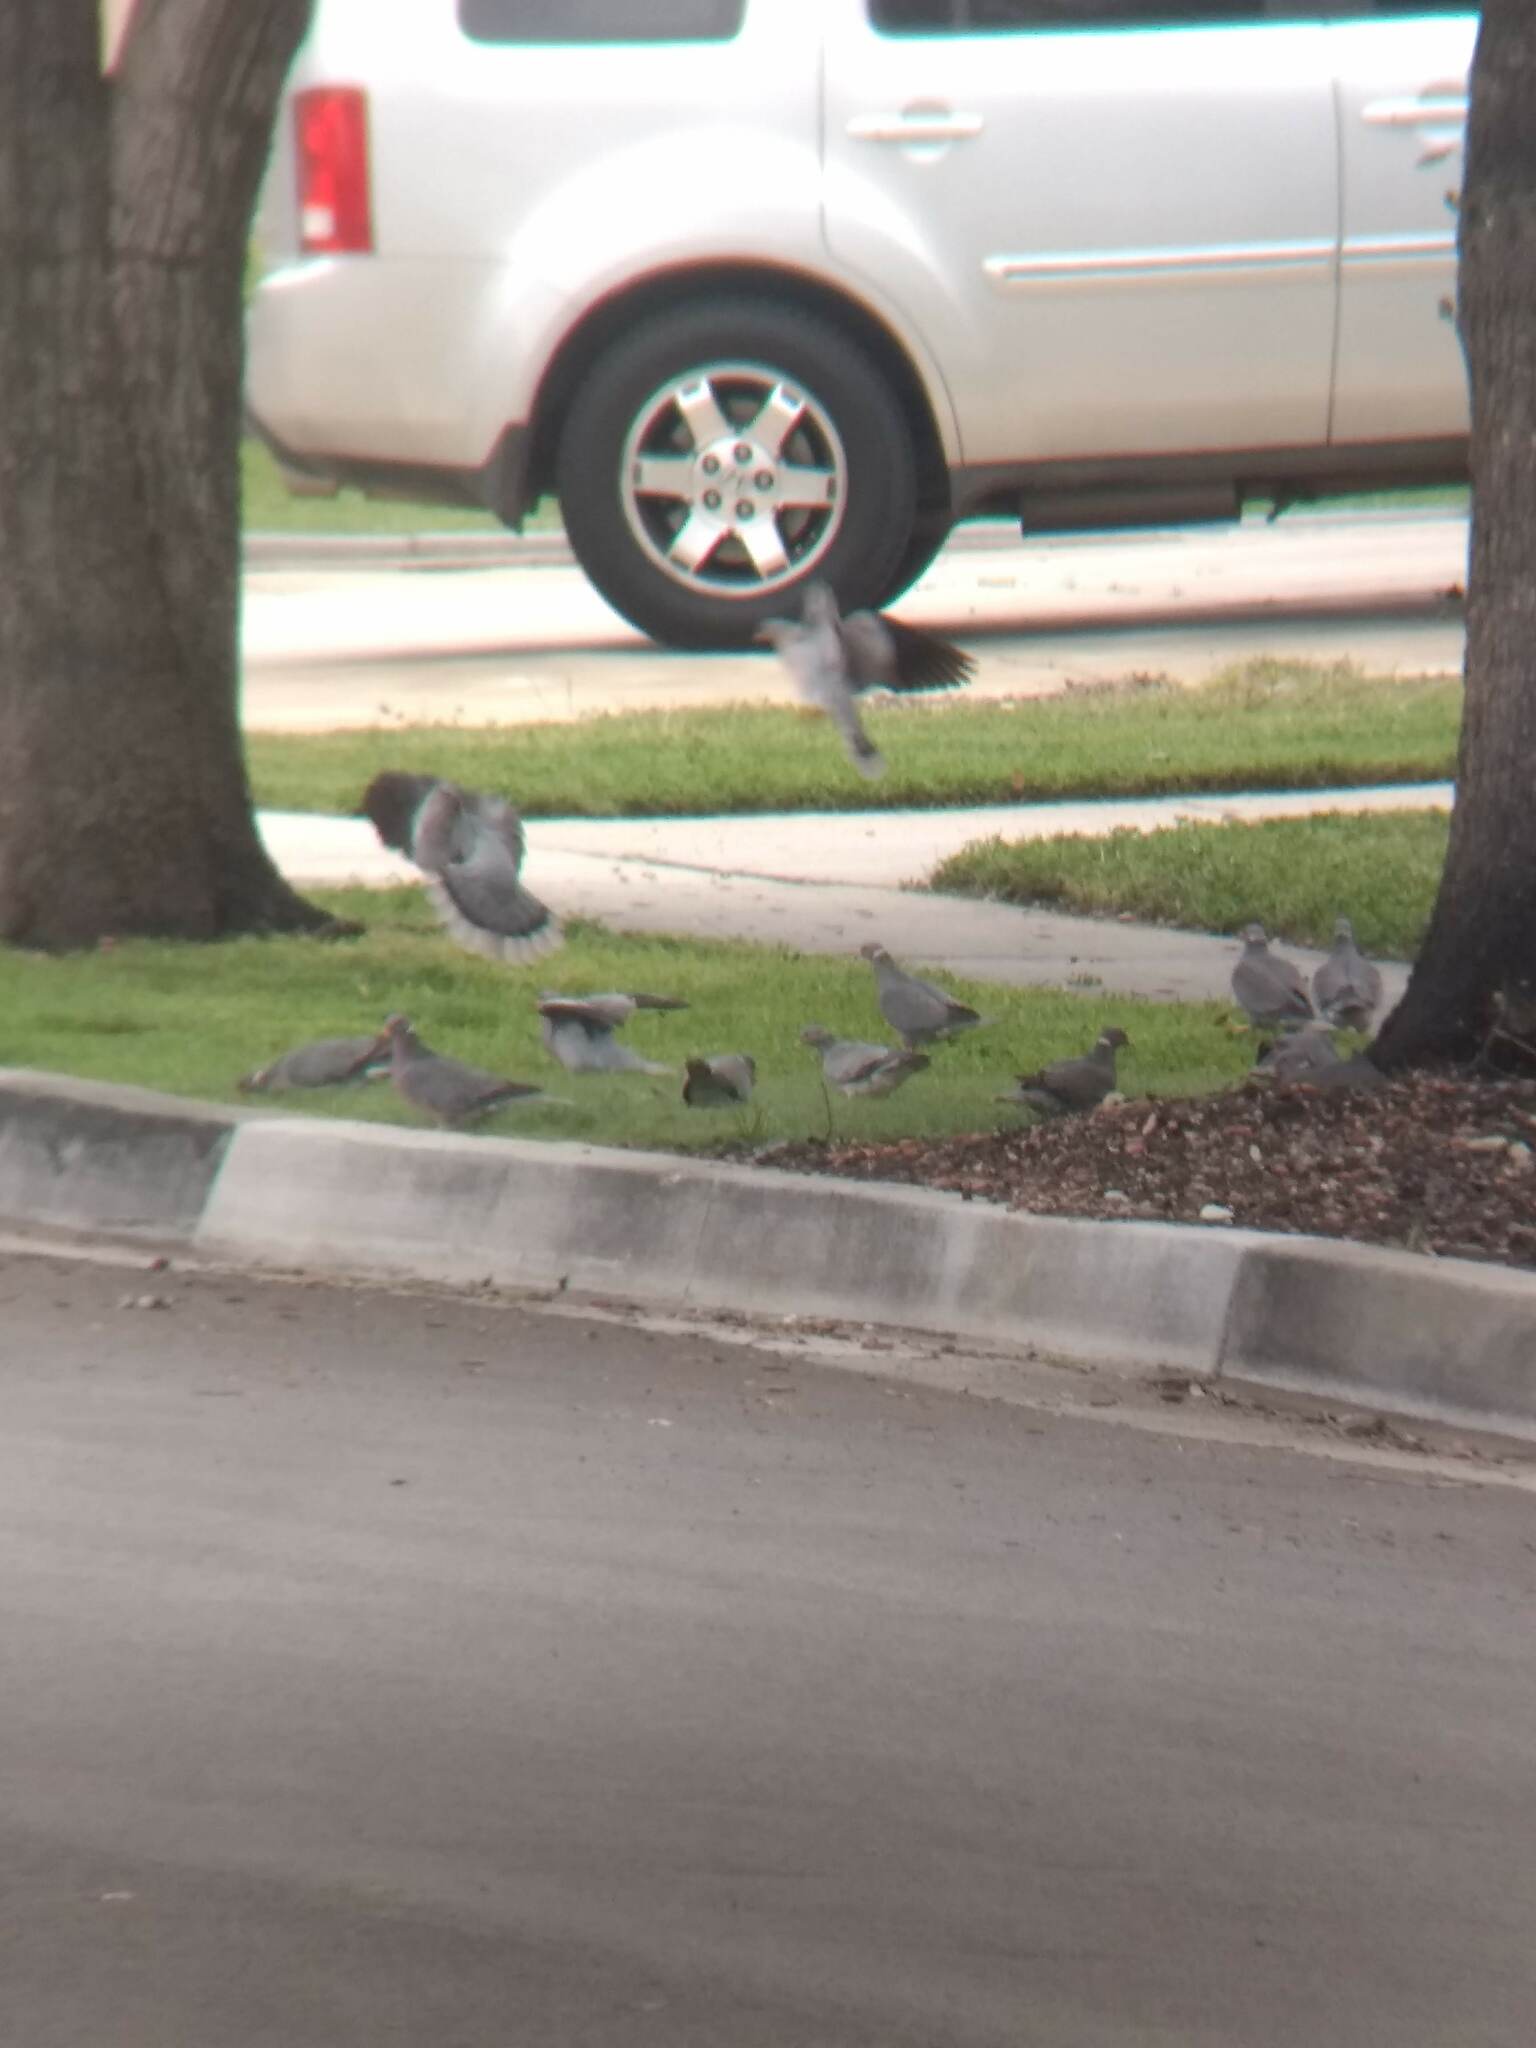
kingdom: Animalia
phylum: Chordata
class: Aves
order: Columbiformes
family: Columbidae
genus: Patagioenas
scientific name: Patagioenas fasciata
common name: Band-tailed pigeon
